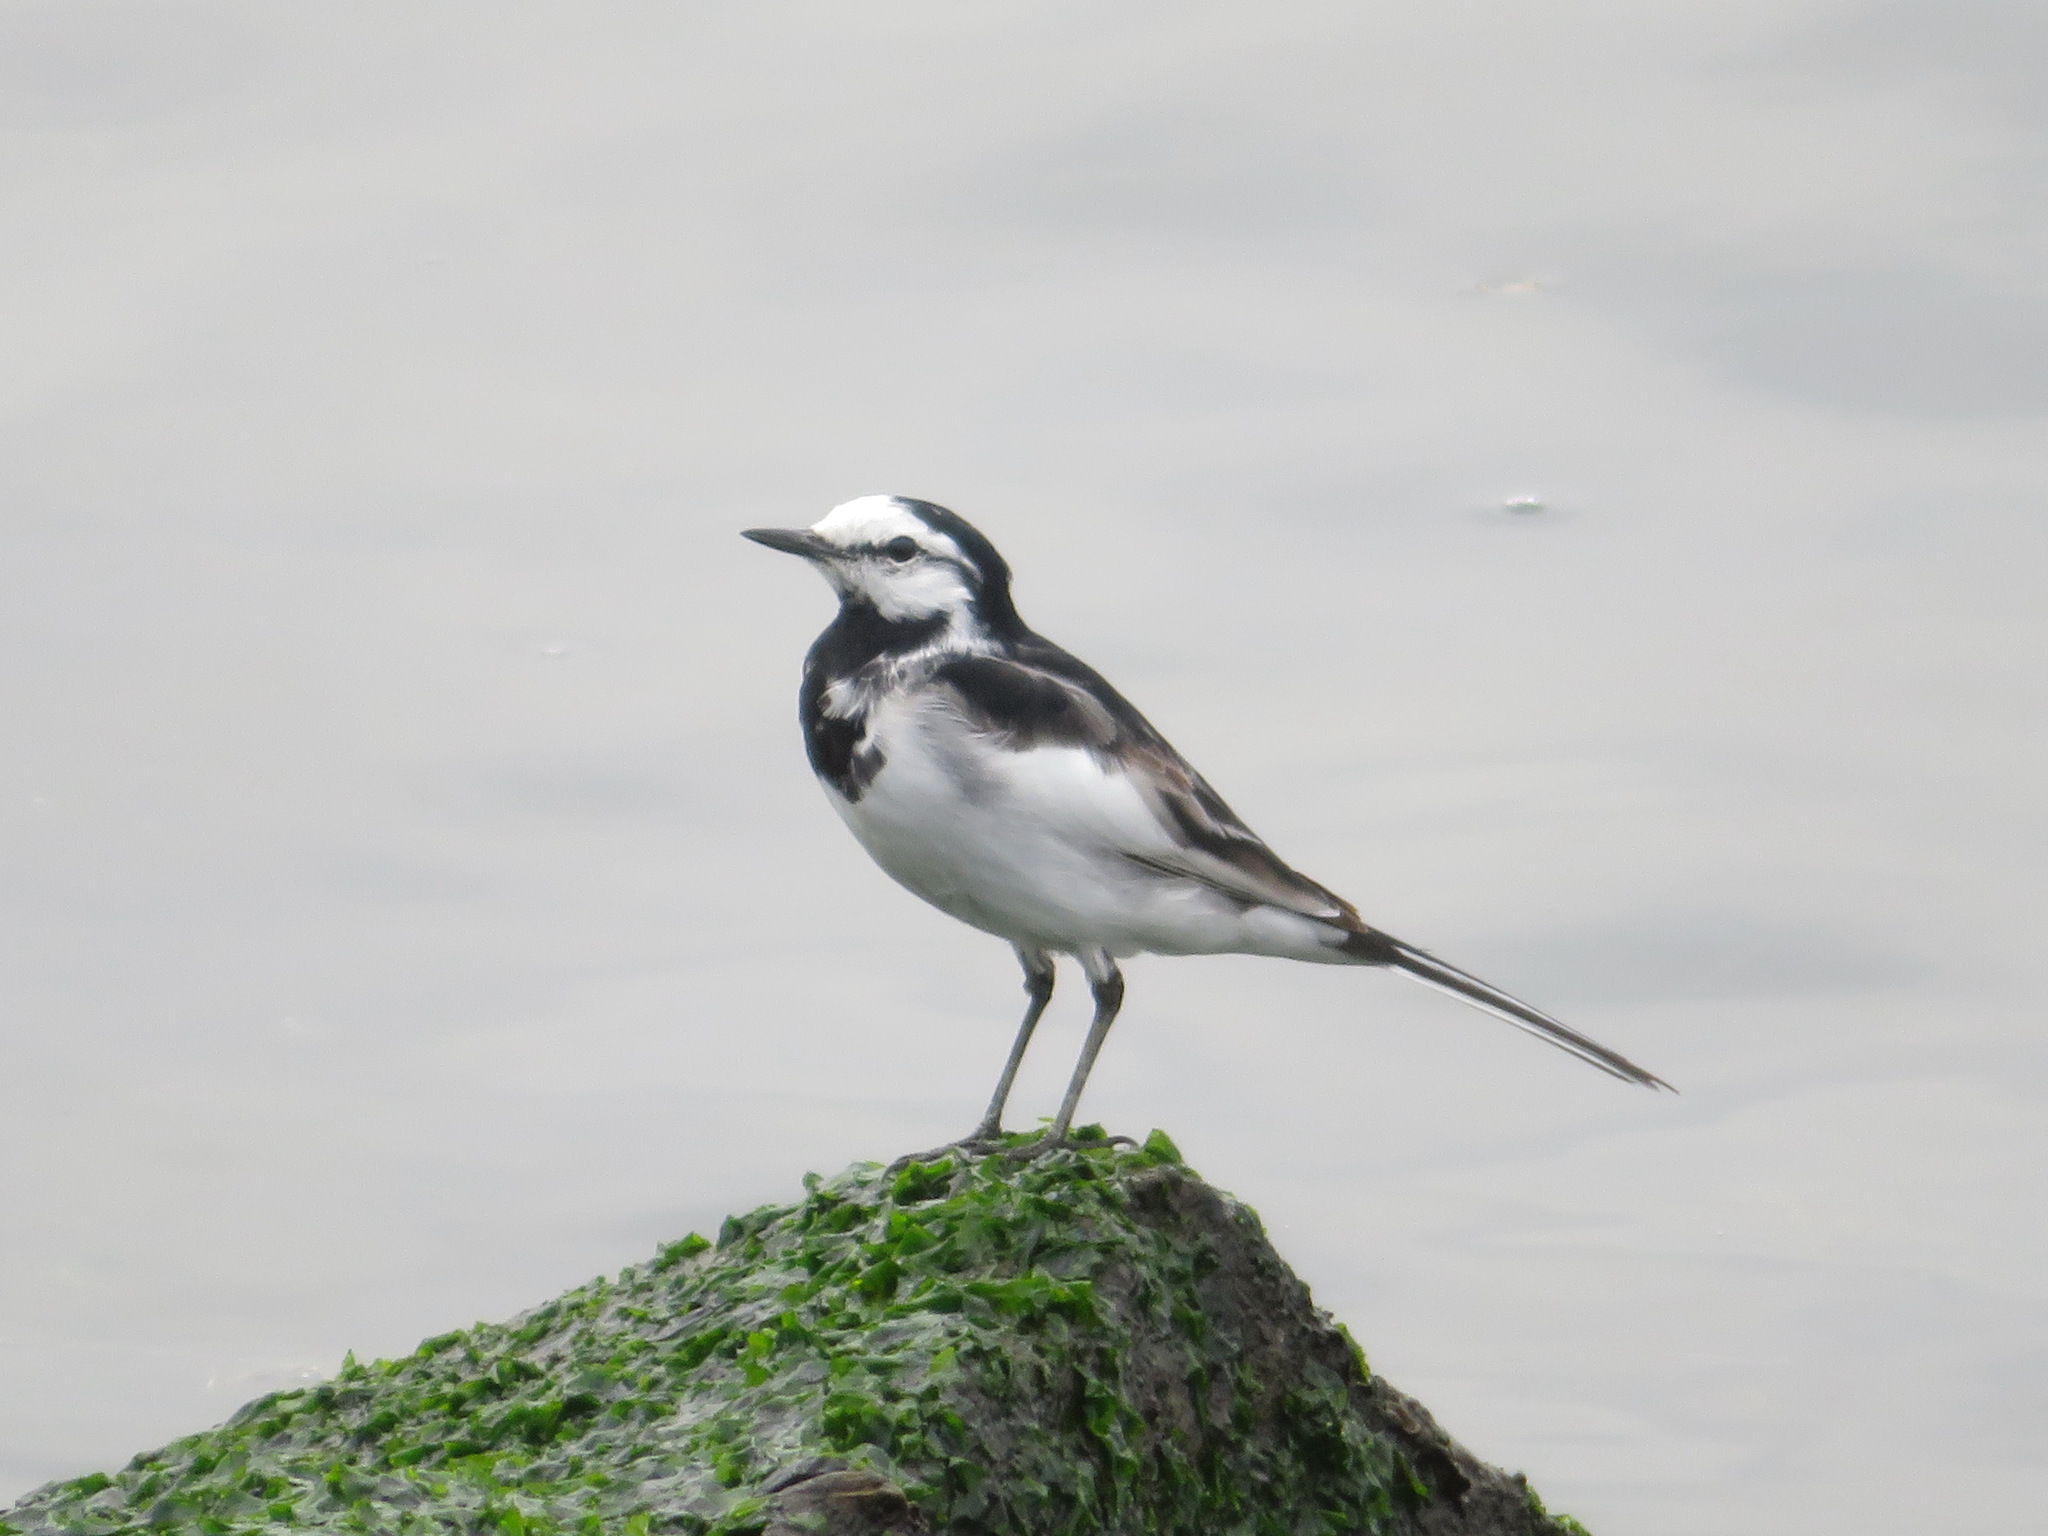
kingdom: Animalia
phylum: Chordata
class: Aves
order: Passeriformes
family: Motacillidae
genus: Motacilla
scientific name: Motacilla alba
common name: White wagtail
